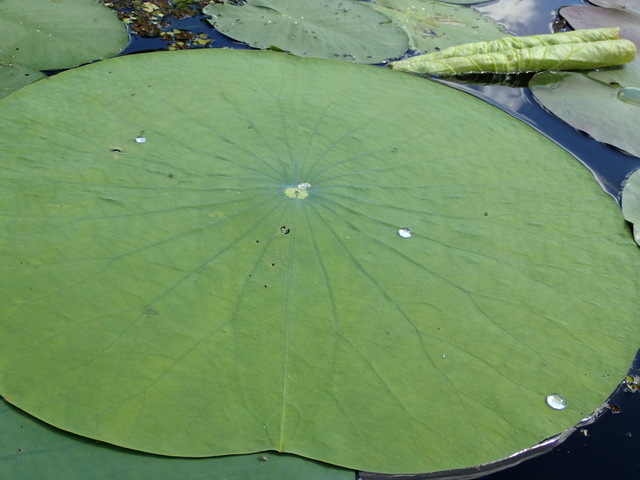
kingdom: Plantae
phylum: Tracheophyta
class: Magnoliopsida
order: Proteales
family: Nelumbonaceae
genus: Nelumbo
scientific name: Nelumbo lutea
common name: American lotus
